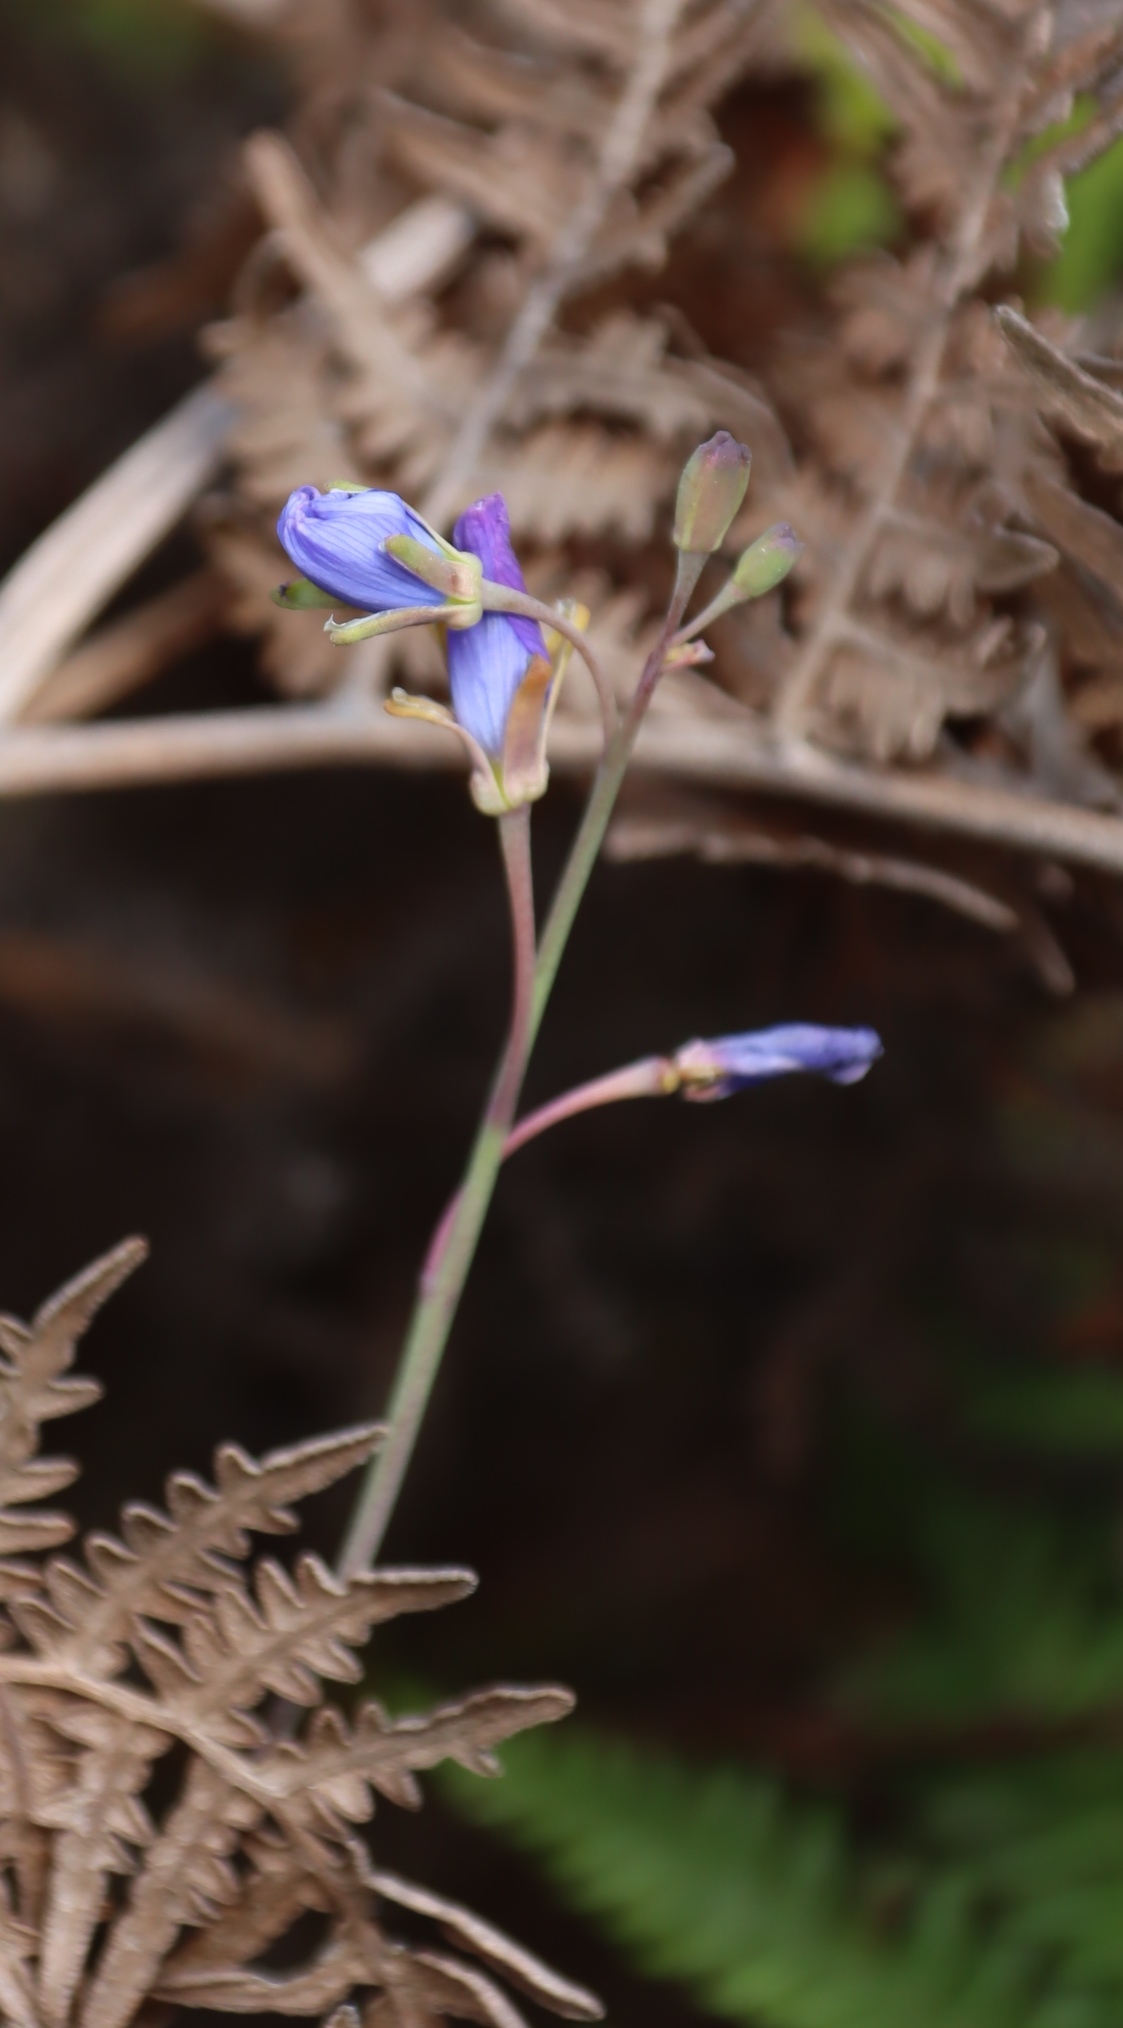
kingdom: Plantae
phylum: Tracheophyta
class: Magnoliopsida
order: Brassicales
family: Brassicaceae
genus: Heliophila
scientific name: Heliophila linearis
